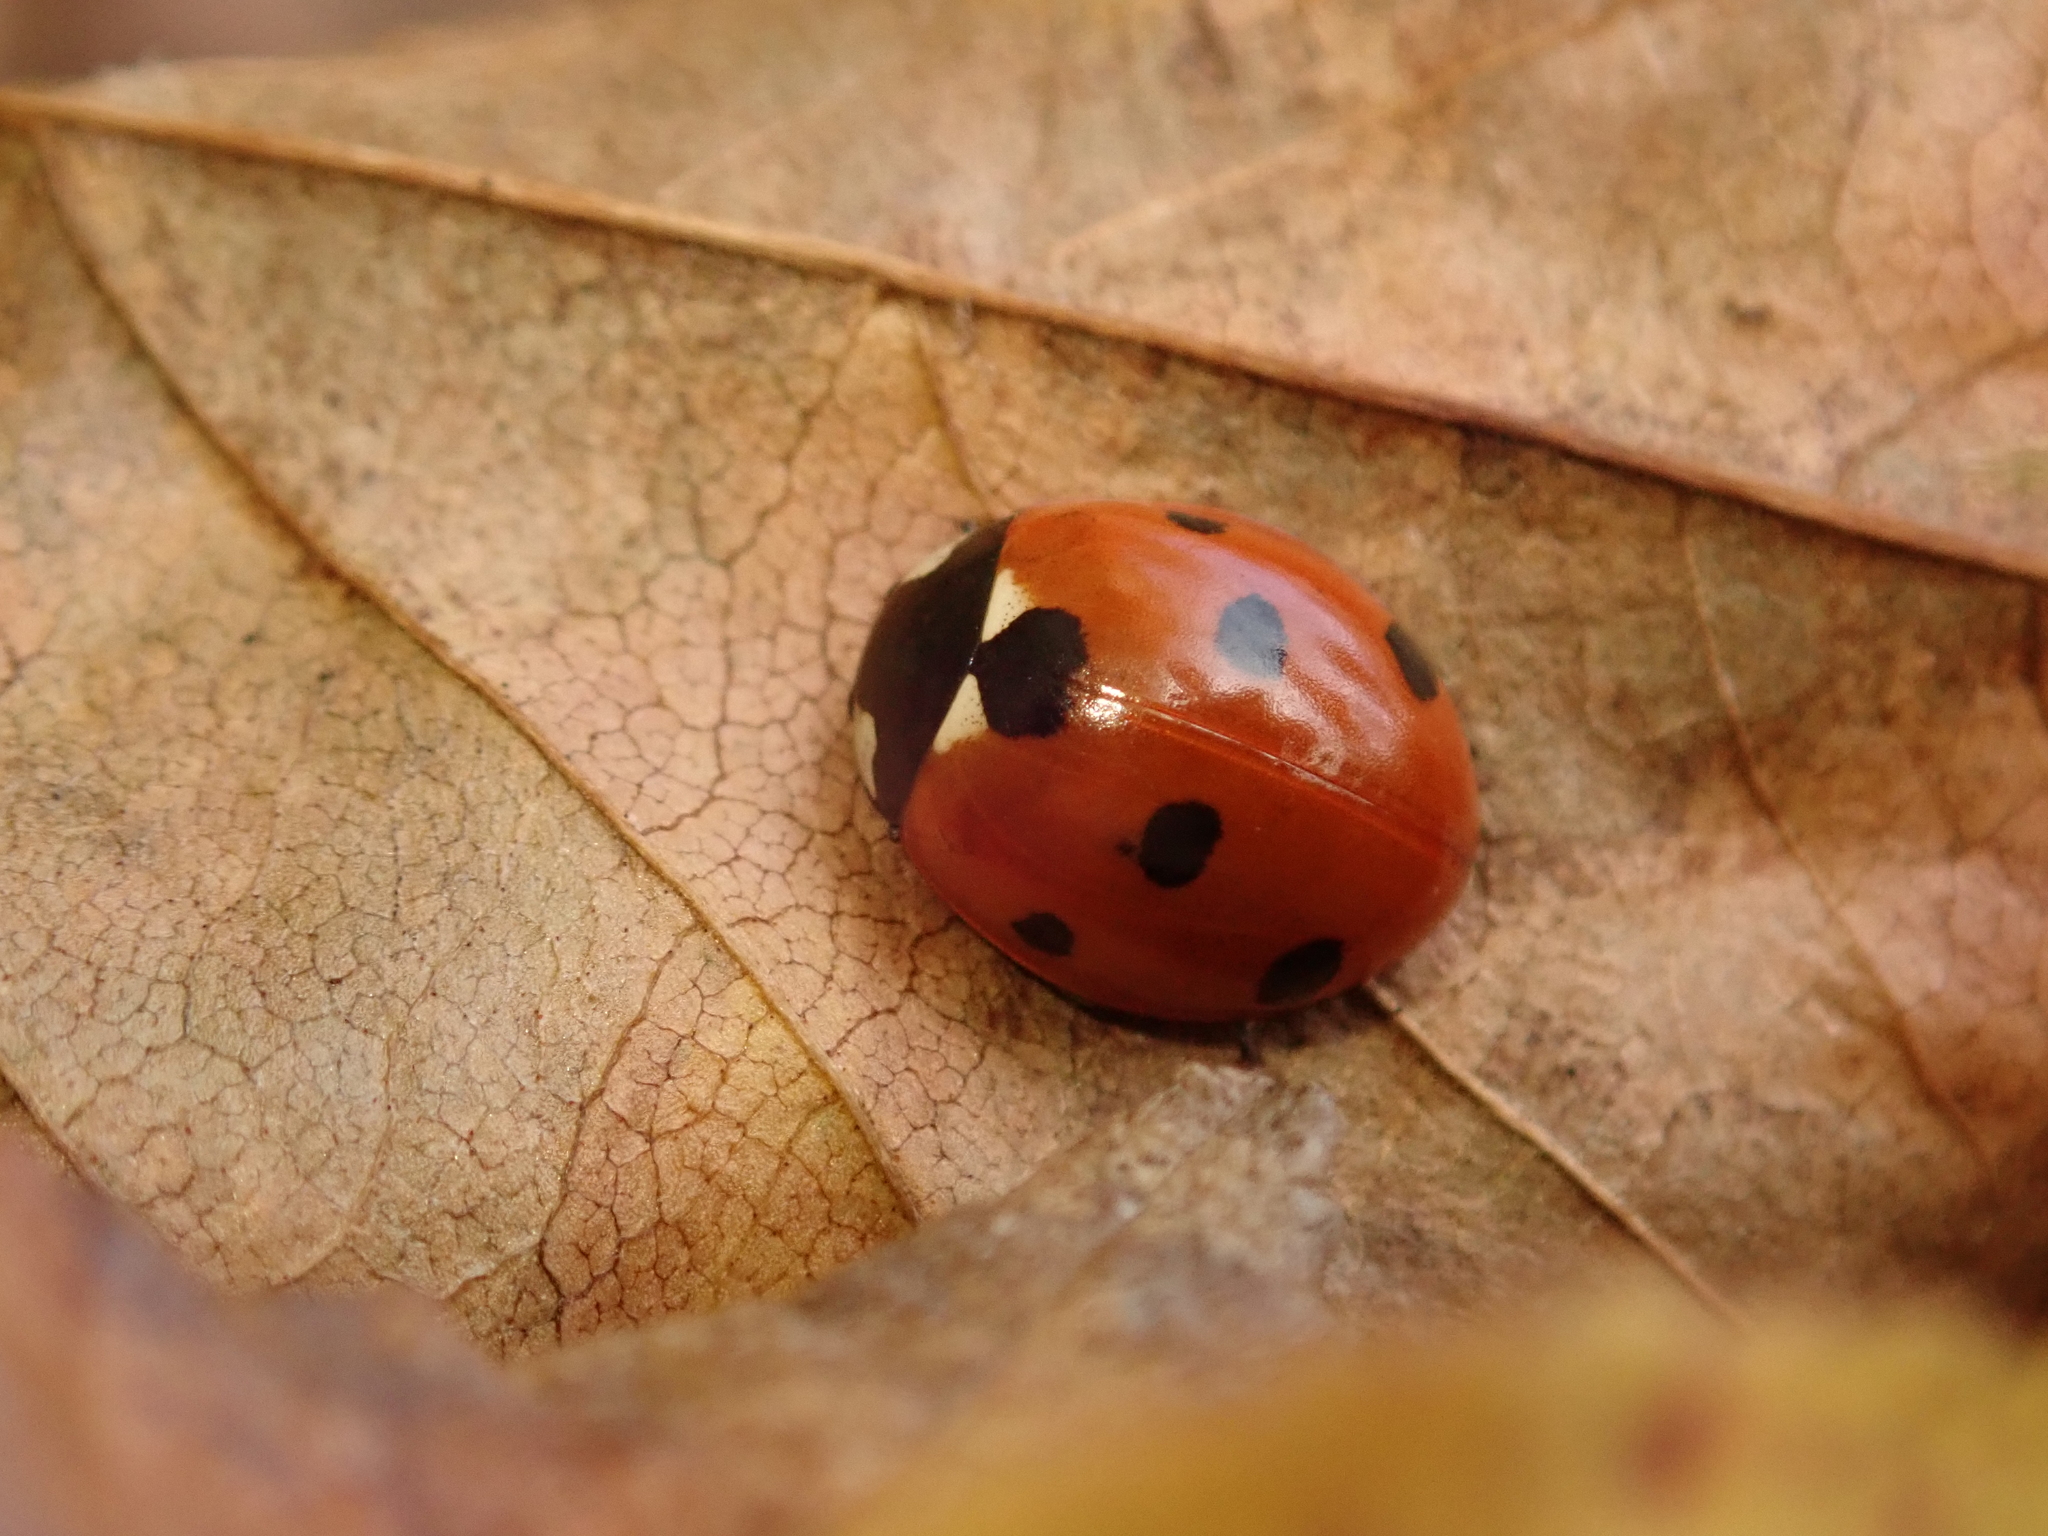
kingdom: Animalia
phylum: Arthropoda
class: Insecta
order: Coleoptera
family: Coccinellidae
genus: Coccinella
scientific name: Coccinella septempunctata
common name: Sevenspotted lady beetle
